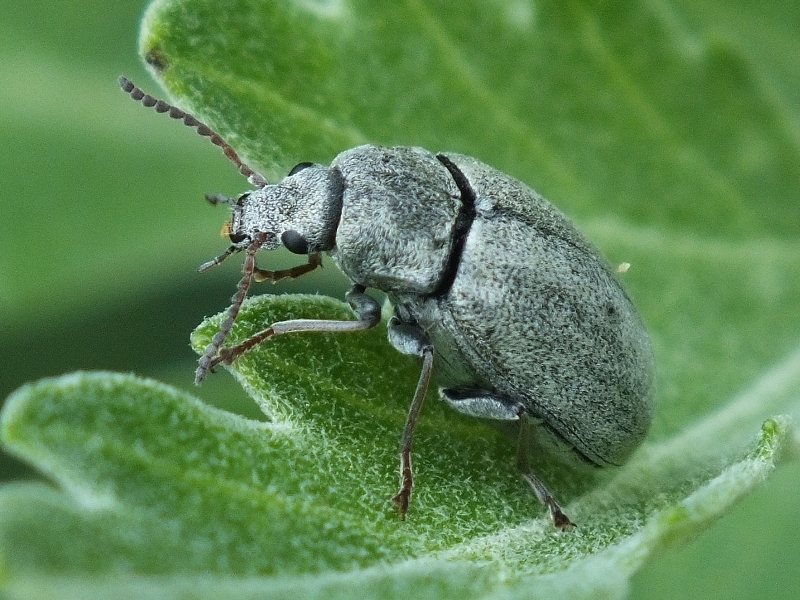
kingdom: Animalia
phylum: Arthropoda
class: Insecta
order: Coleoptera
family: Mycteridae
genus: Mycterus
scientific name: Mycterus tibialis
